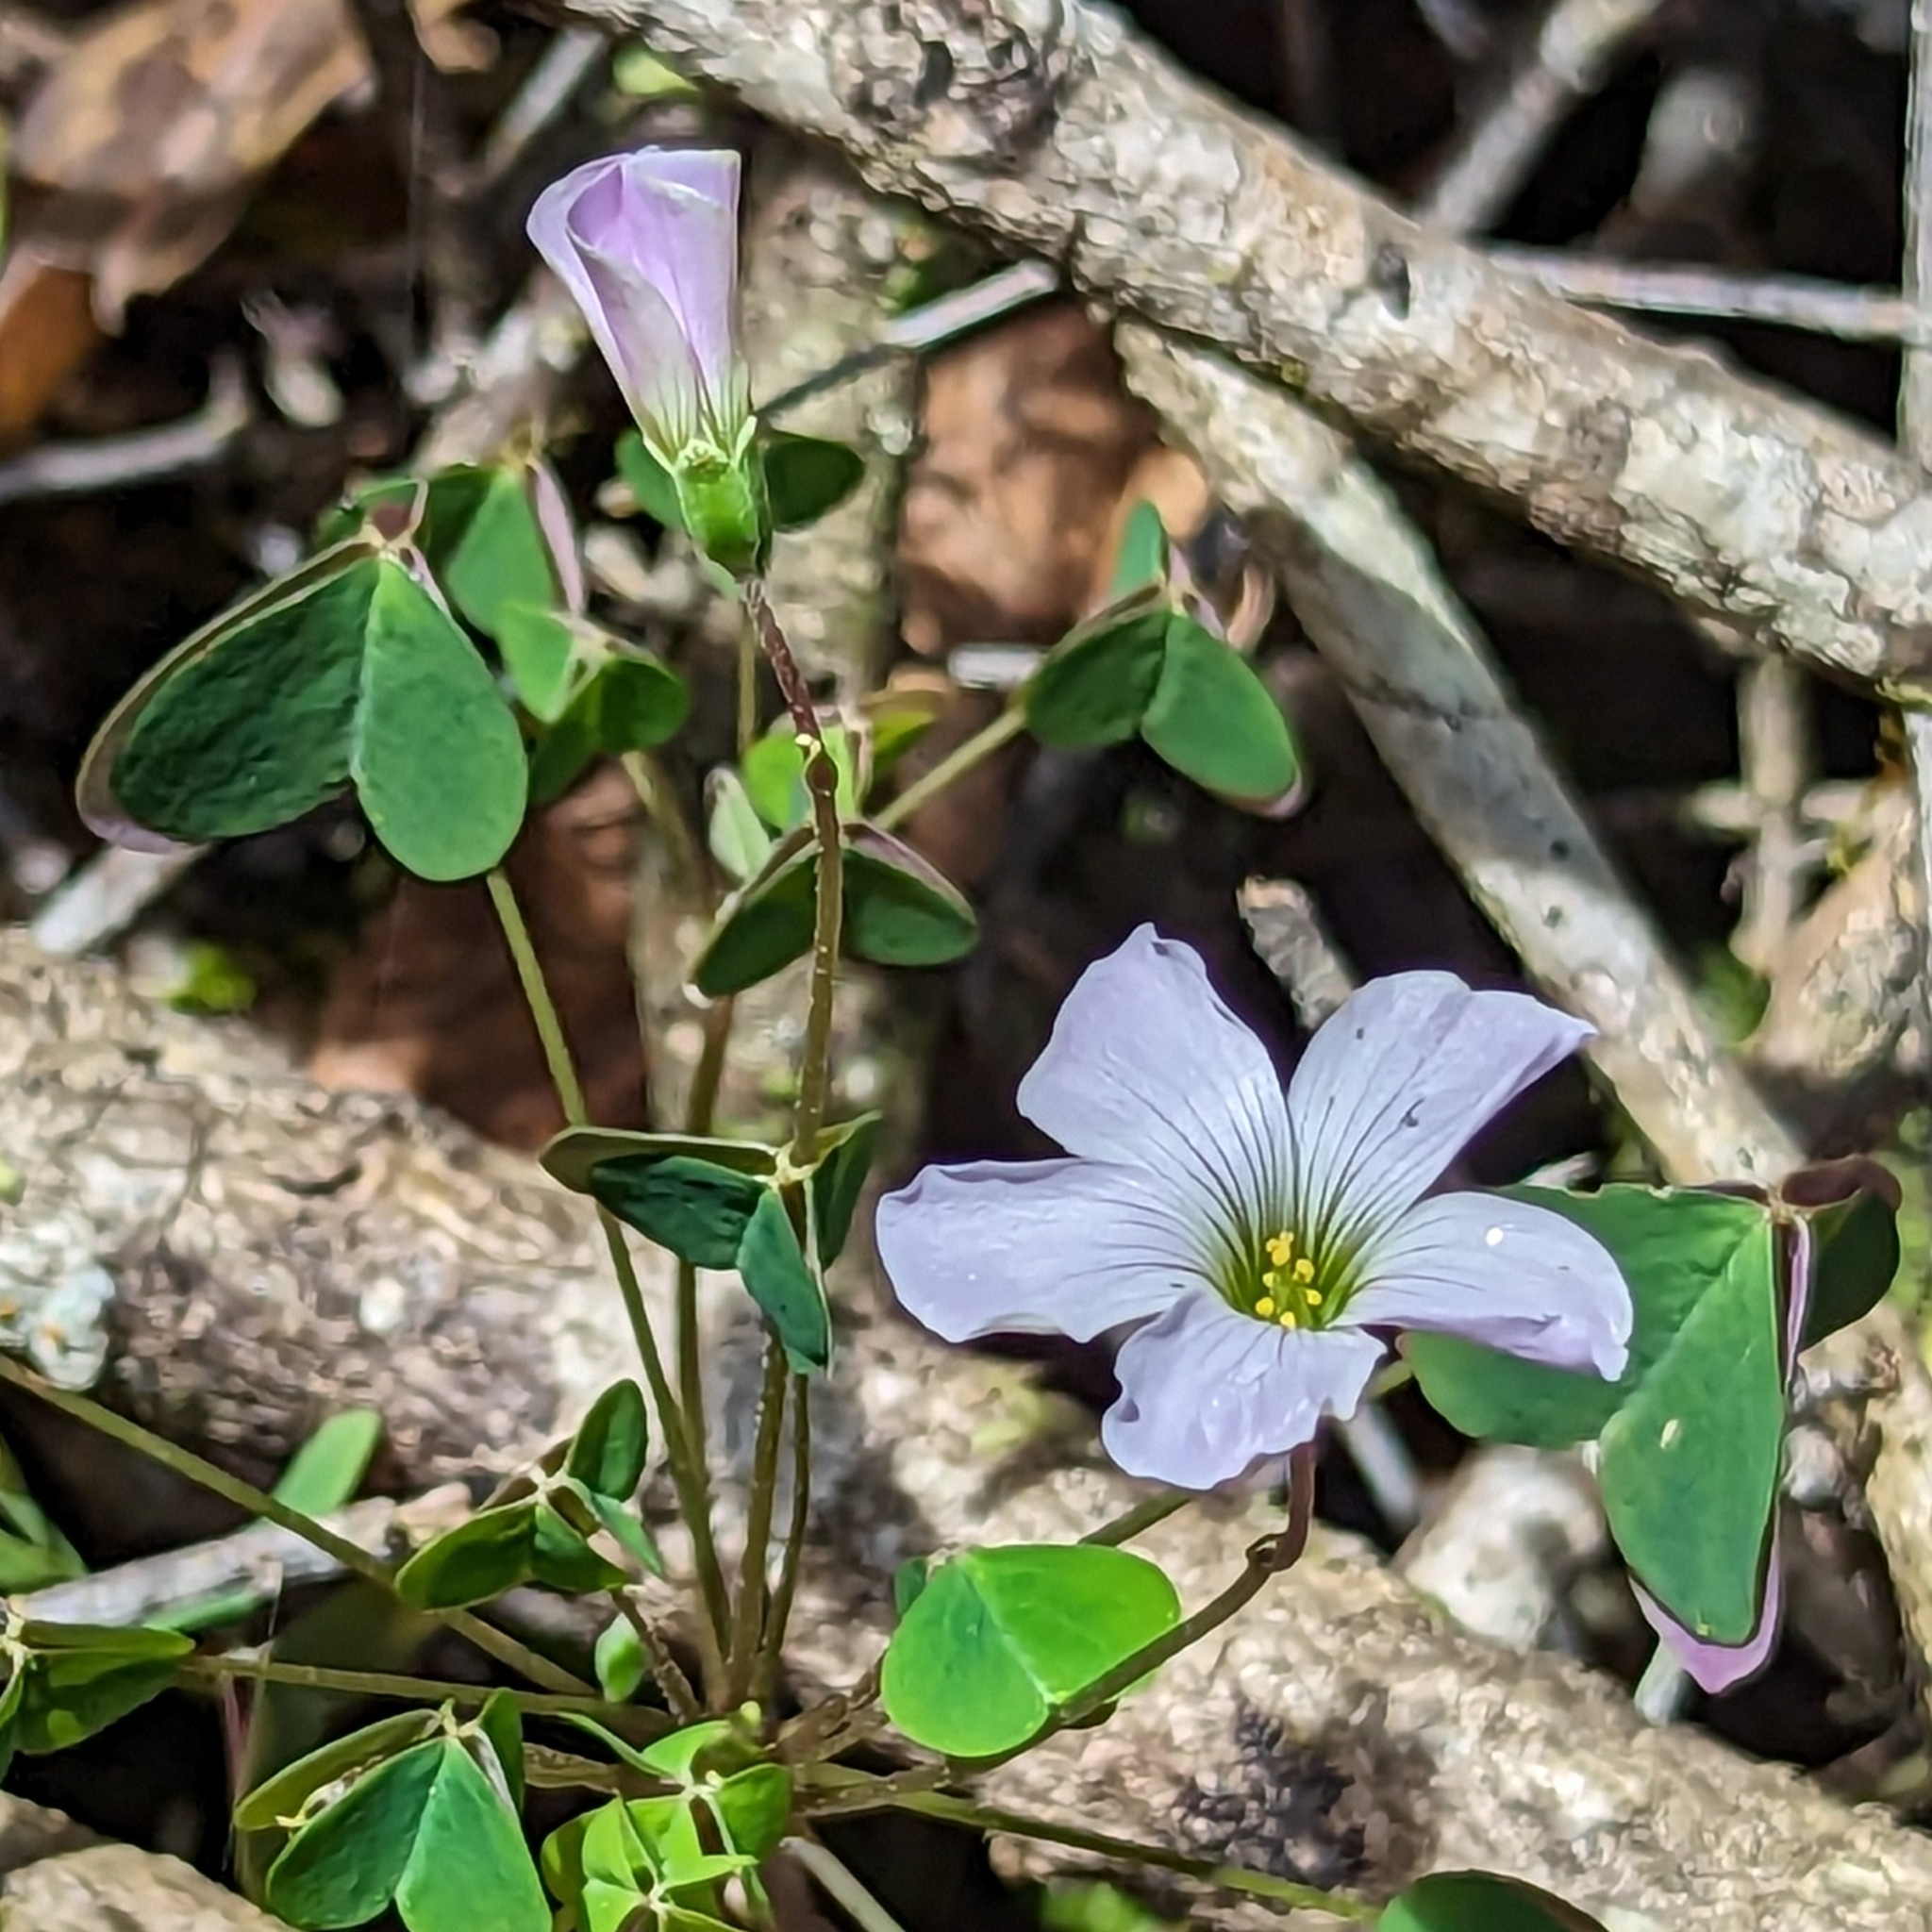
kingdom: Plantae
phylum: Tracheophyta
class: Magnoliopsida
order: Oxalidales
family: Oxalidaceae
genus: Oxalis
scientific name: Oxalis incarnata
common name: Pale pink-sorrel
